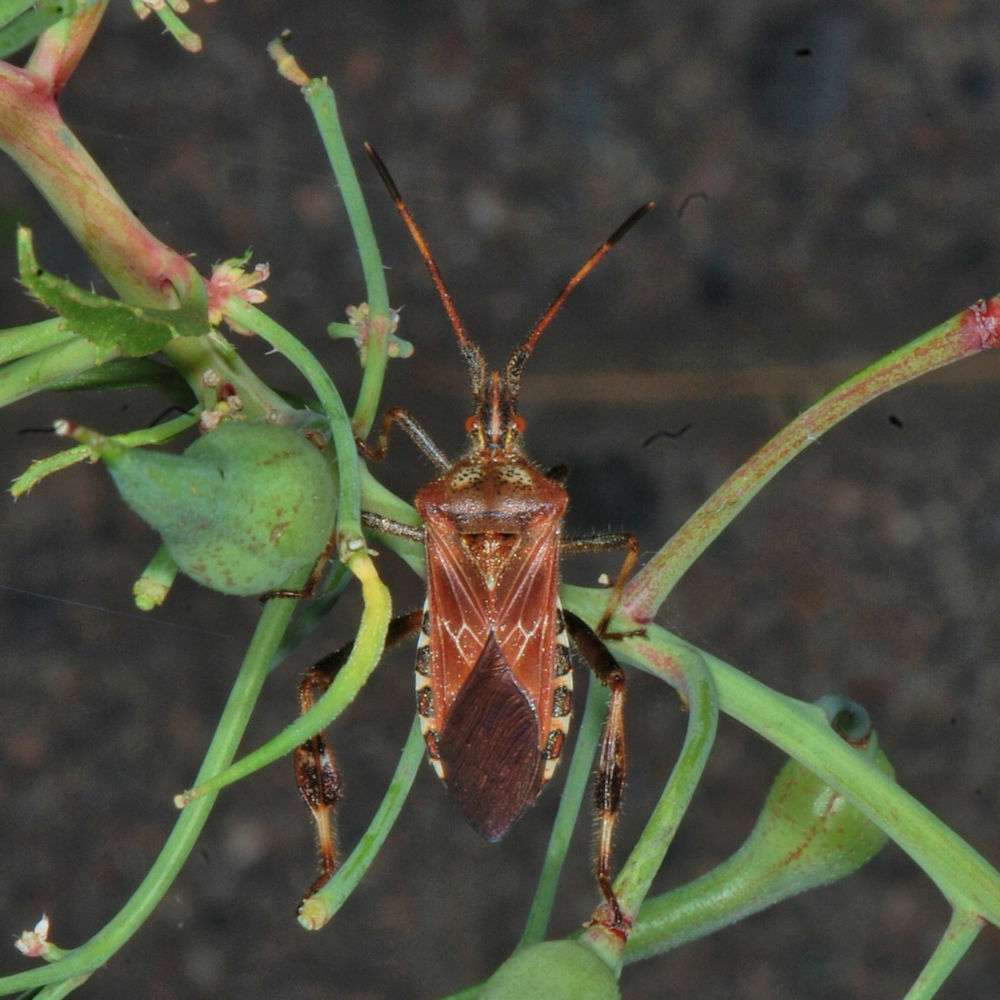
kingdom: Animalia
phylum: Arthropoda
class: Insecta
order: Hemiptera
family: Coreidae
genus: Leptoglossus
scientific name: Leptoglossus occidentalis
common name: Western conifer-seed bug
